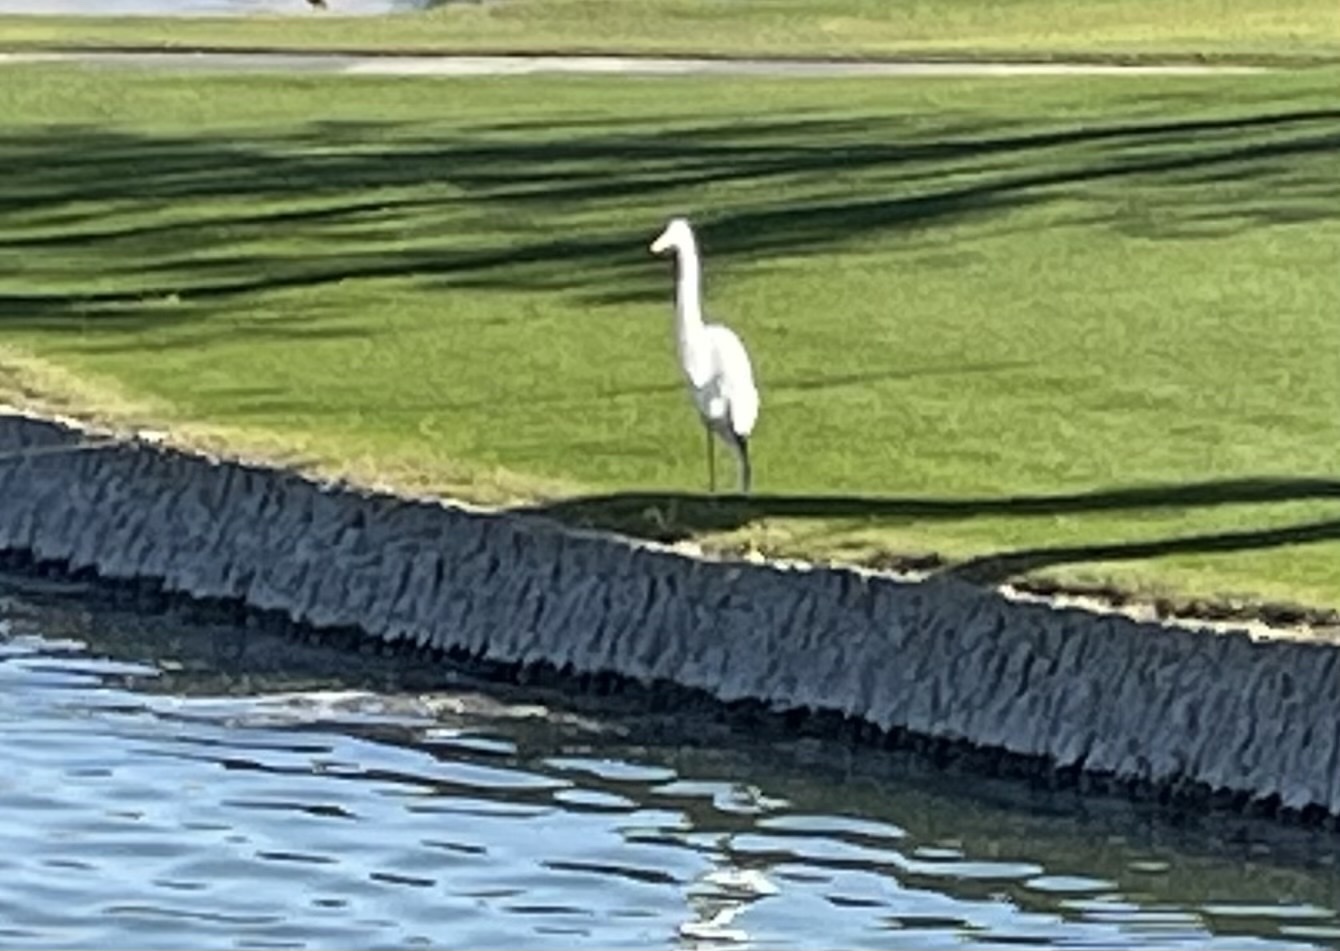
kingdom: Animalia
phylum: Chordata
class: Aves
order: Pelecaniformes
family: Ardeidae
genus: Ardea
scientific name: Ardea alba
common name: Great egret
